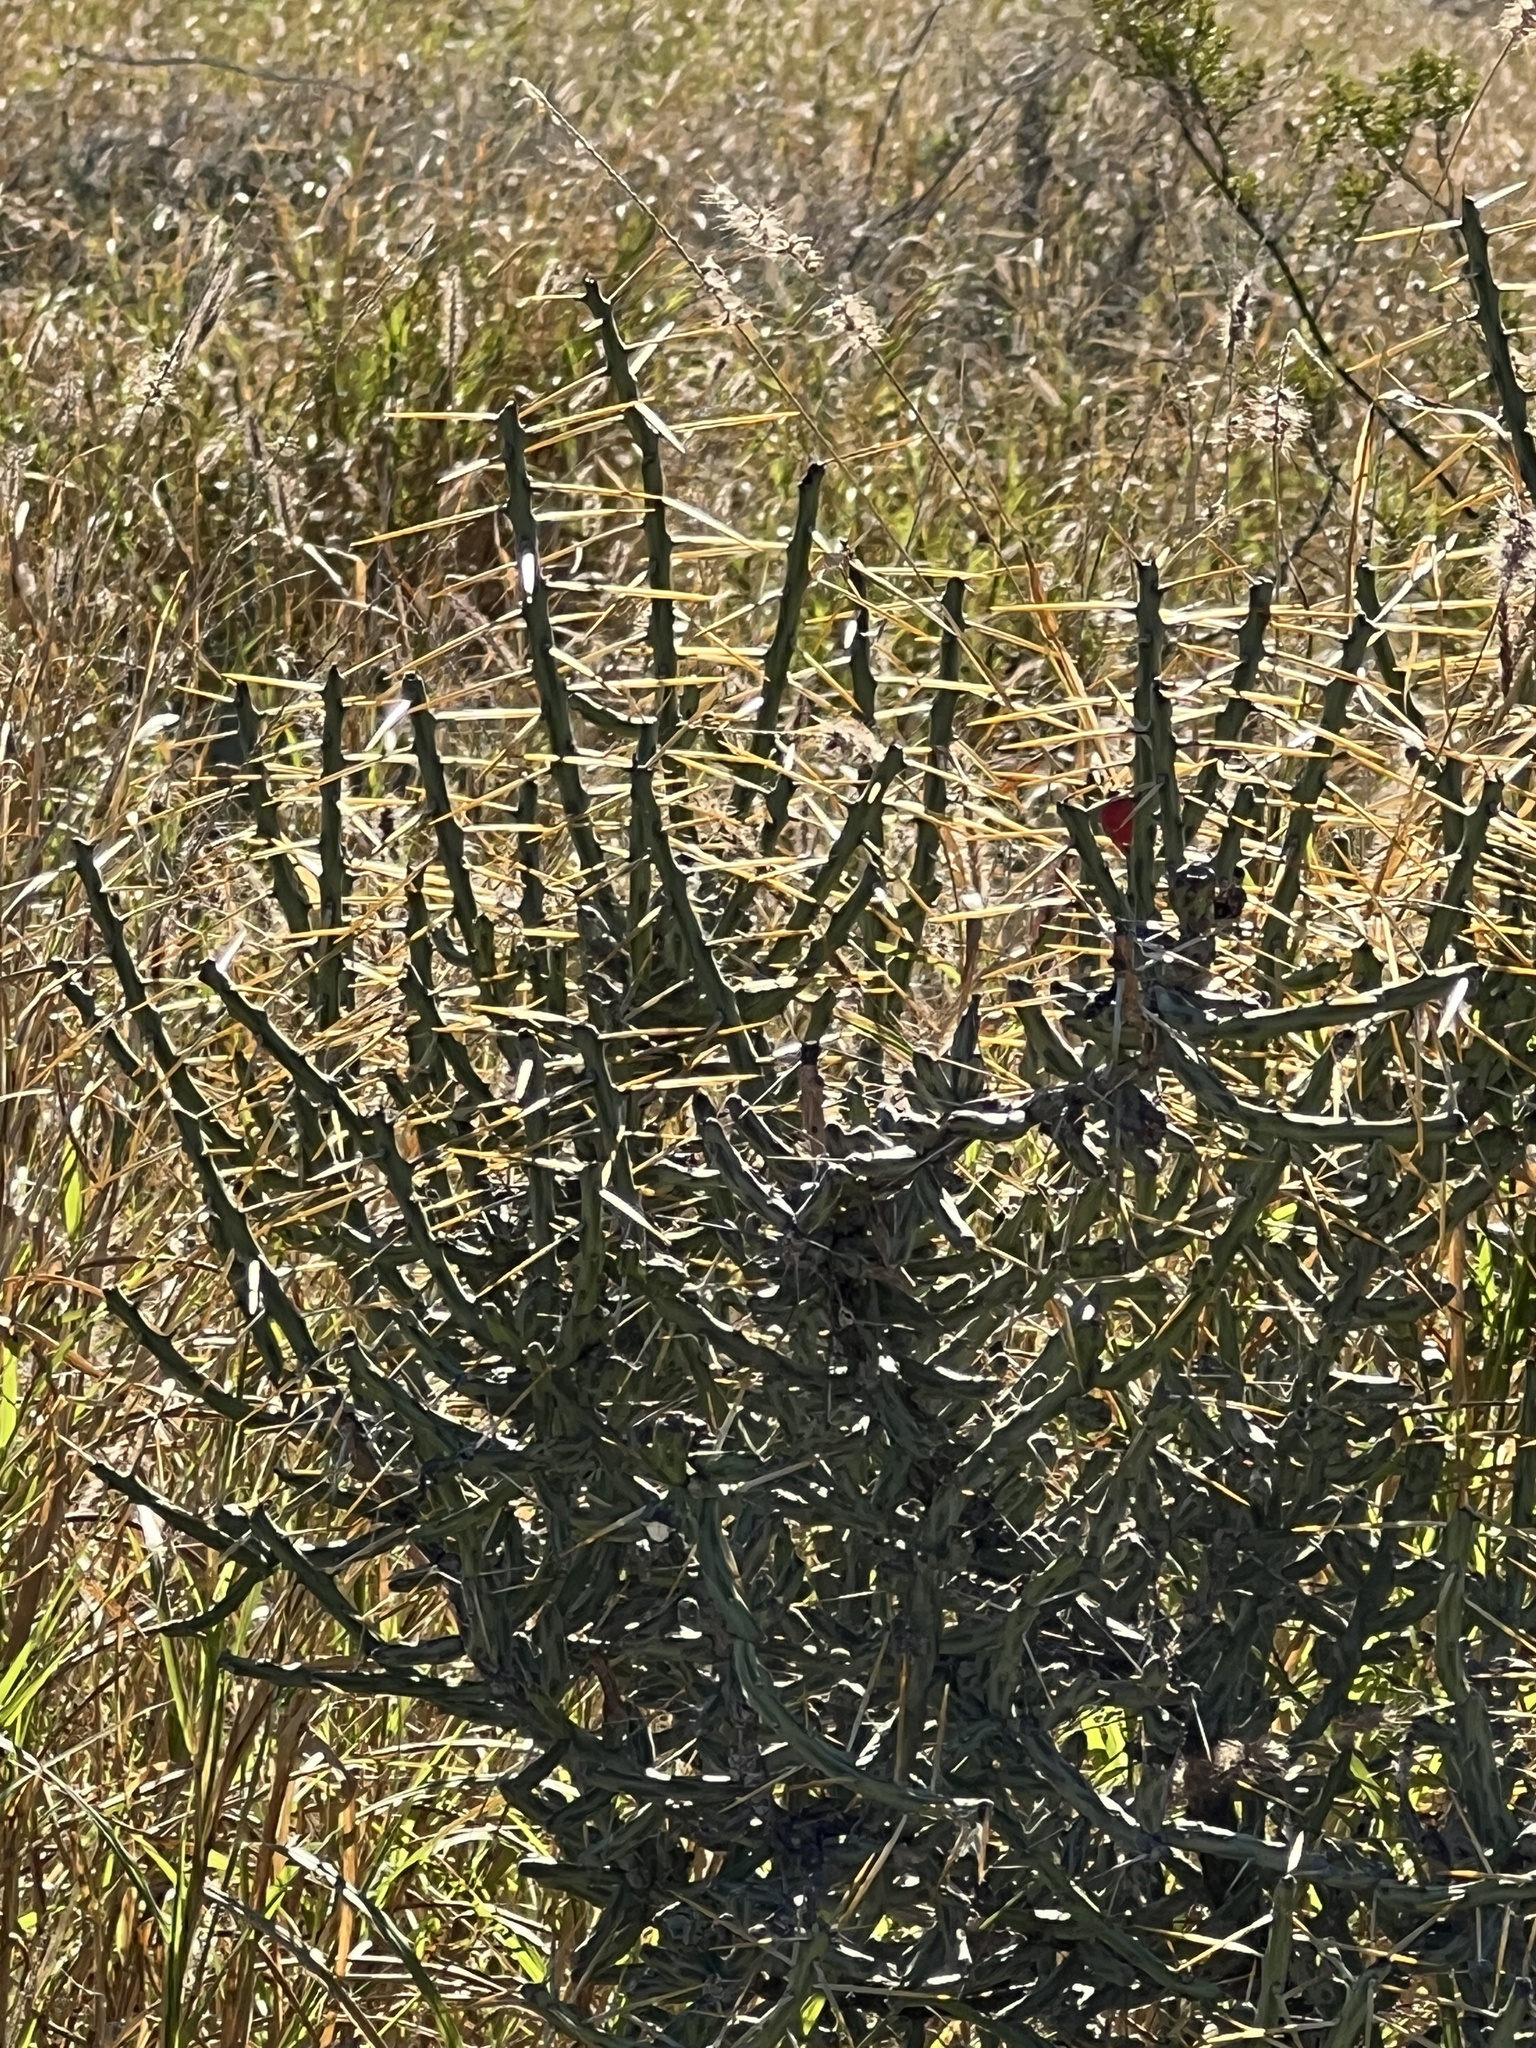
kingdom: Plantae
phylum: Tracheophyta
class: Magnoliopsida
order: Caryophyllales
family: Cactaceae
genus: Cylindropuntia
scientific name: Cylindropuntia leptocaulis
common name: Christmas cactus
